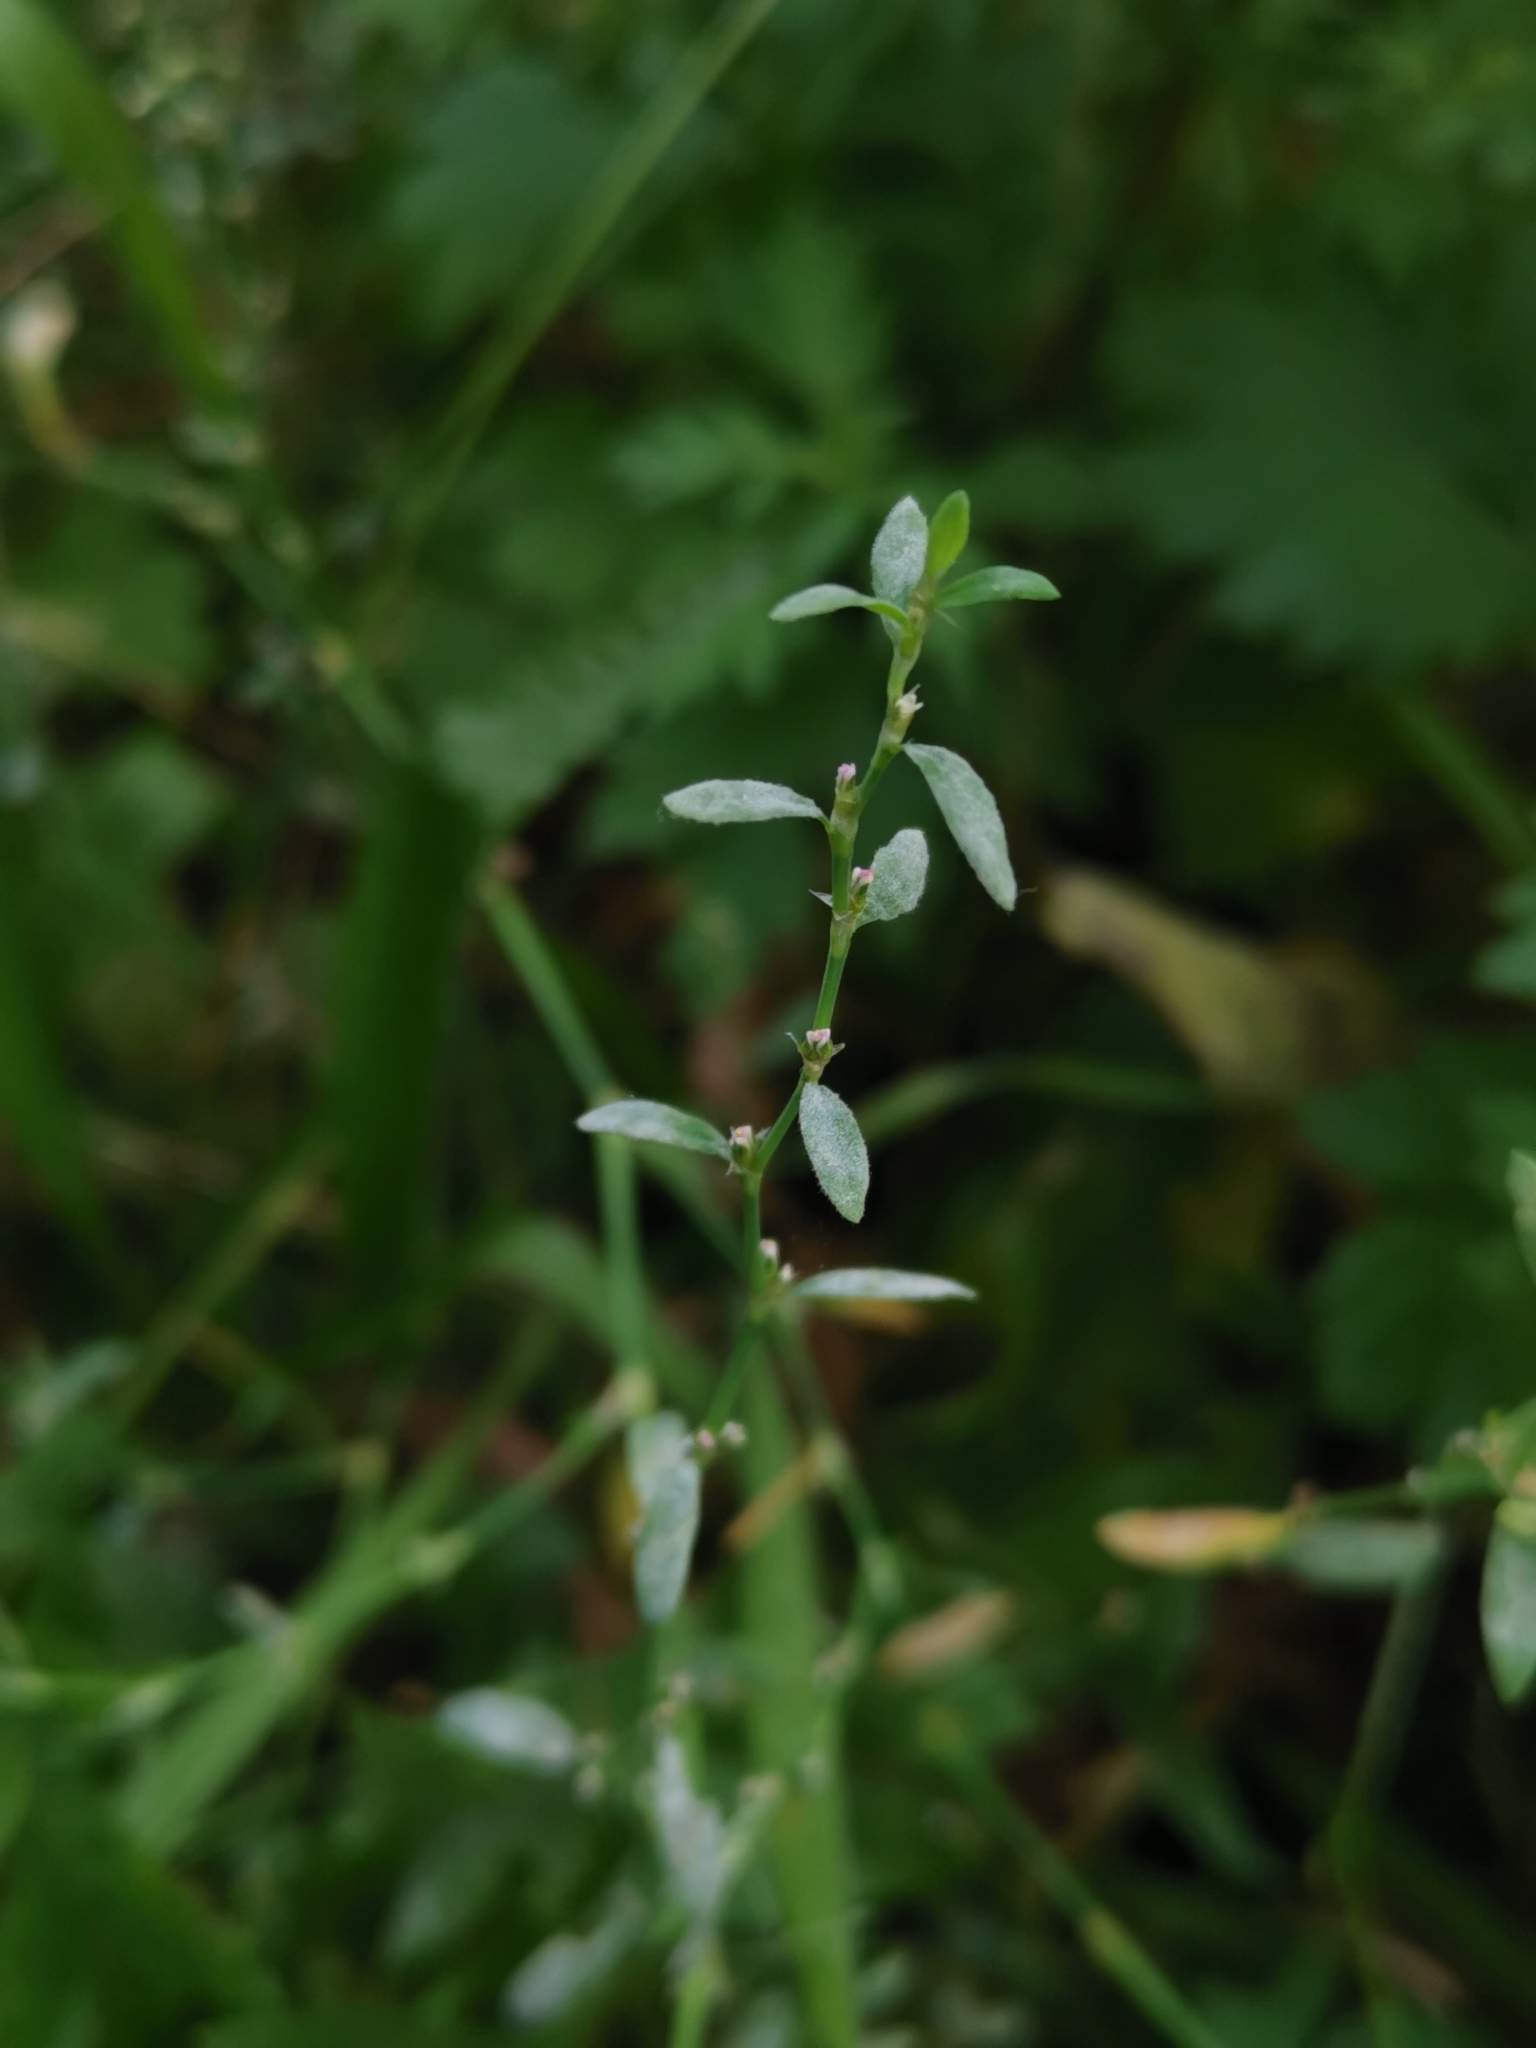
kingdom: Plantae
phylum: Tracheophyta
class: Magnoliopsida
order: Caryophyllales
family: Polygonaceae
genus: Polygonum
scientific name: Polygonum aviculare
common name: Prostrate knotweed
